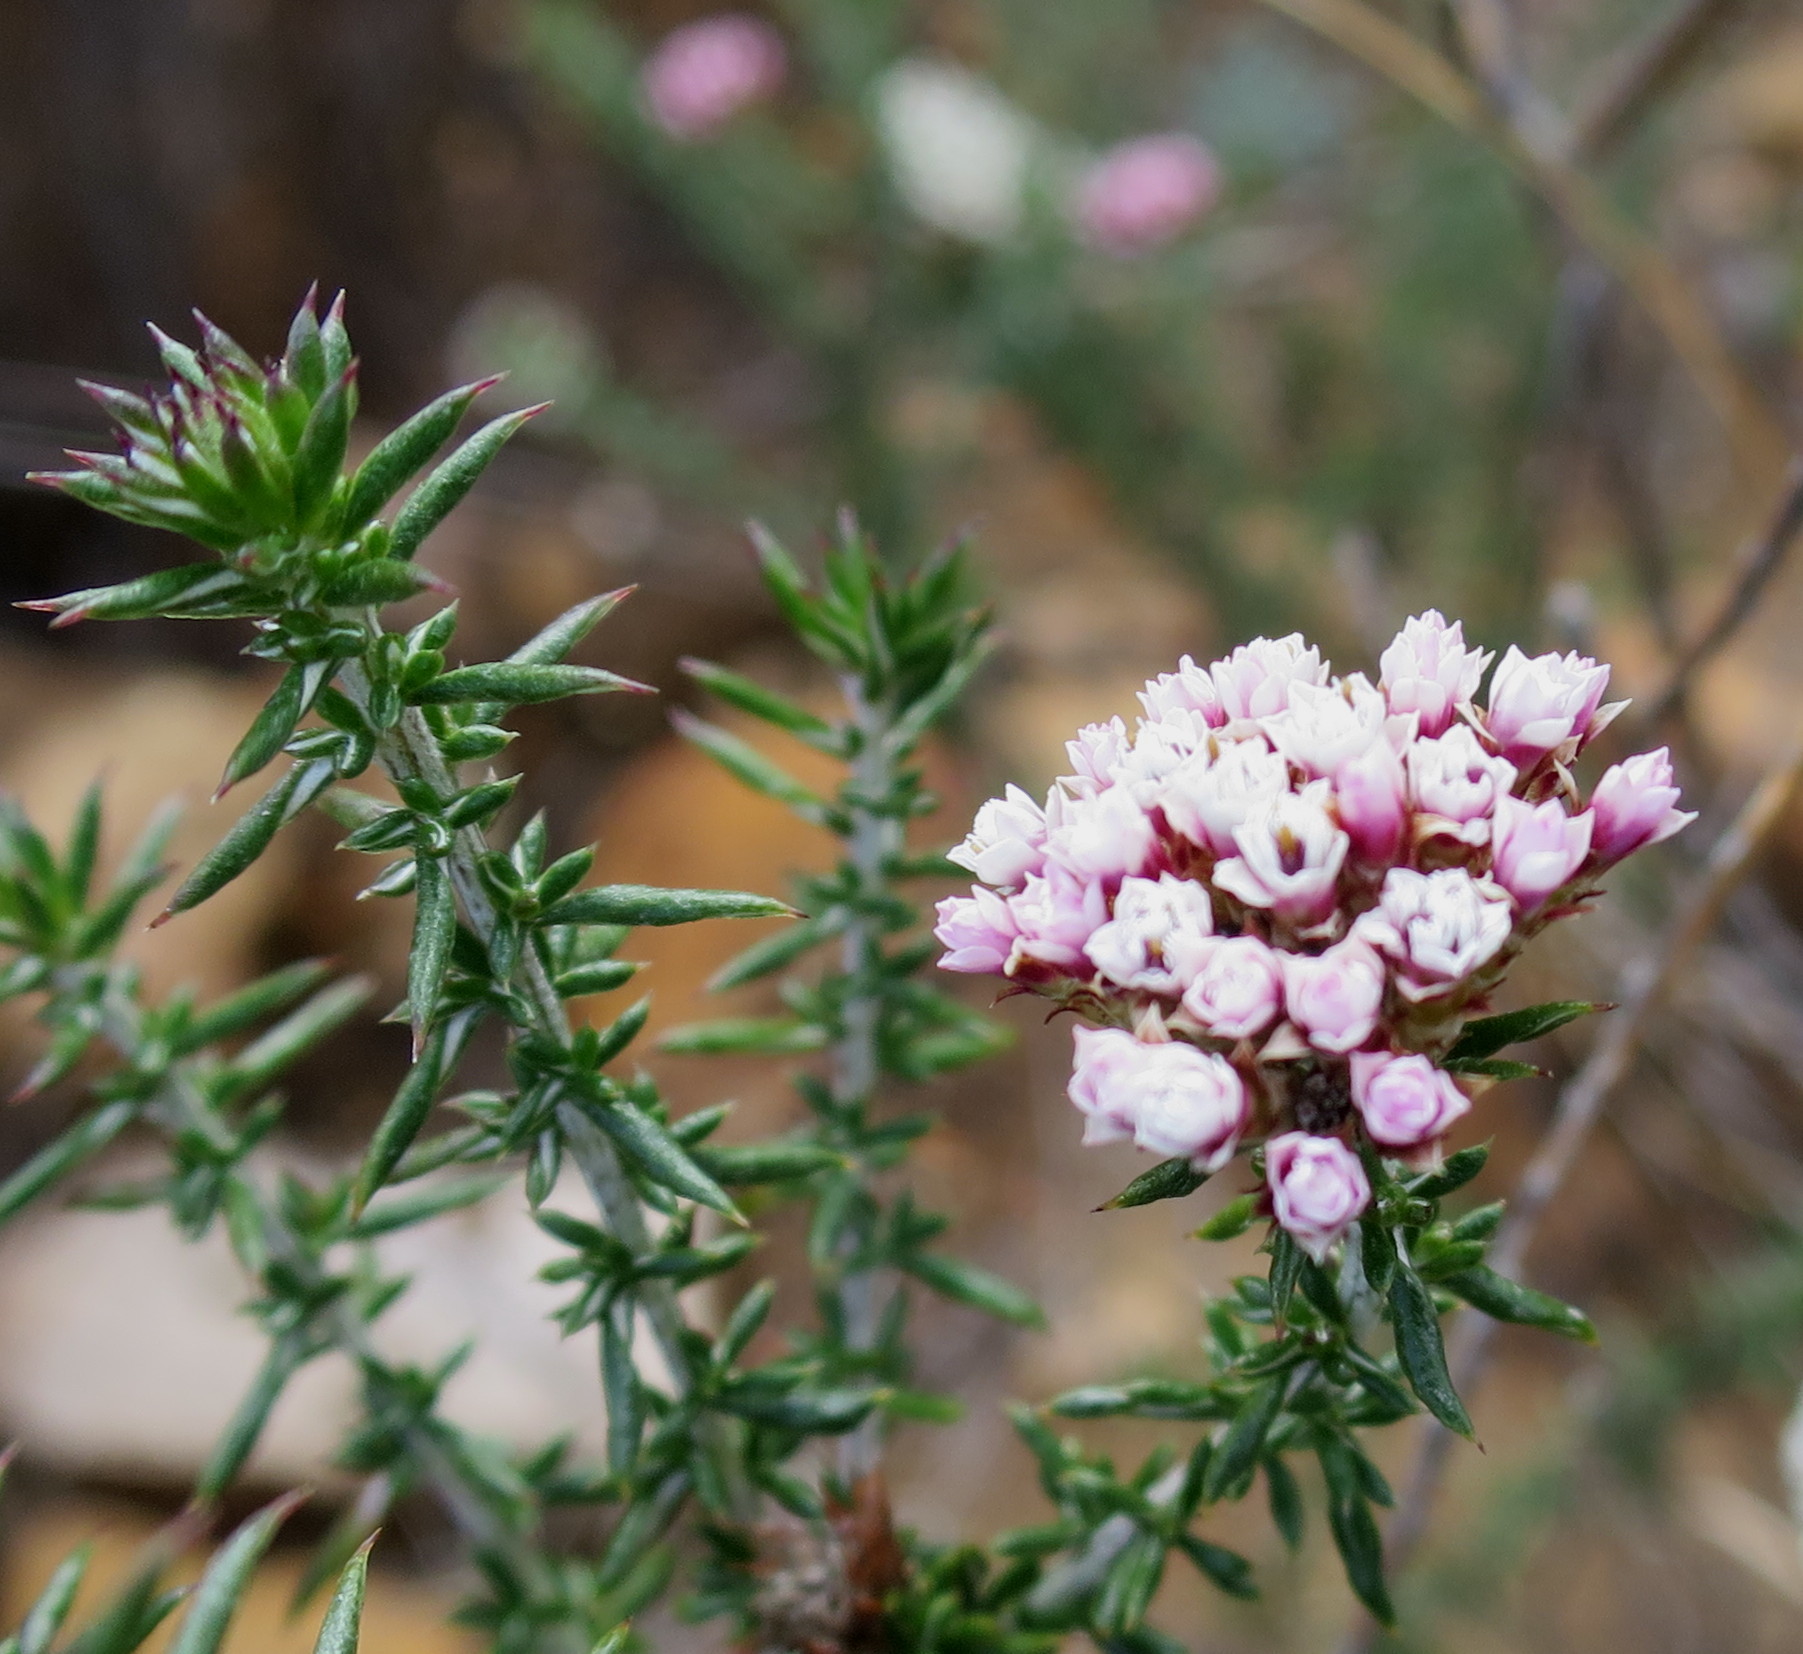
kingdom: Plantae
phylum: Tracheophyta
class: Magnoliopsida
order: Asterales
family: Asteraceae
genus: Metalasia
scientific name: Metalasia massonii
